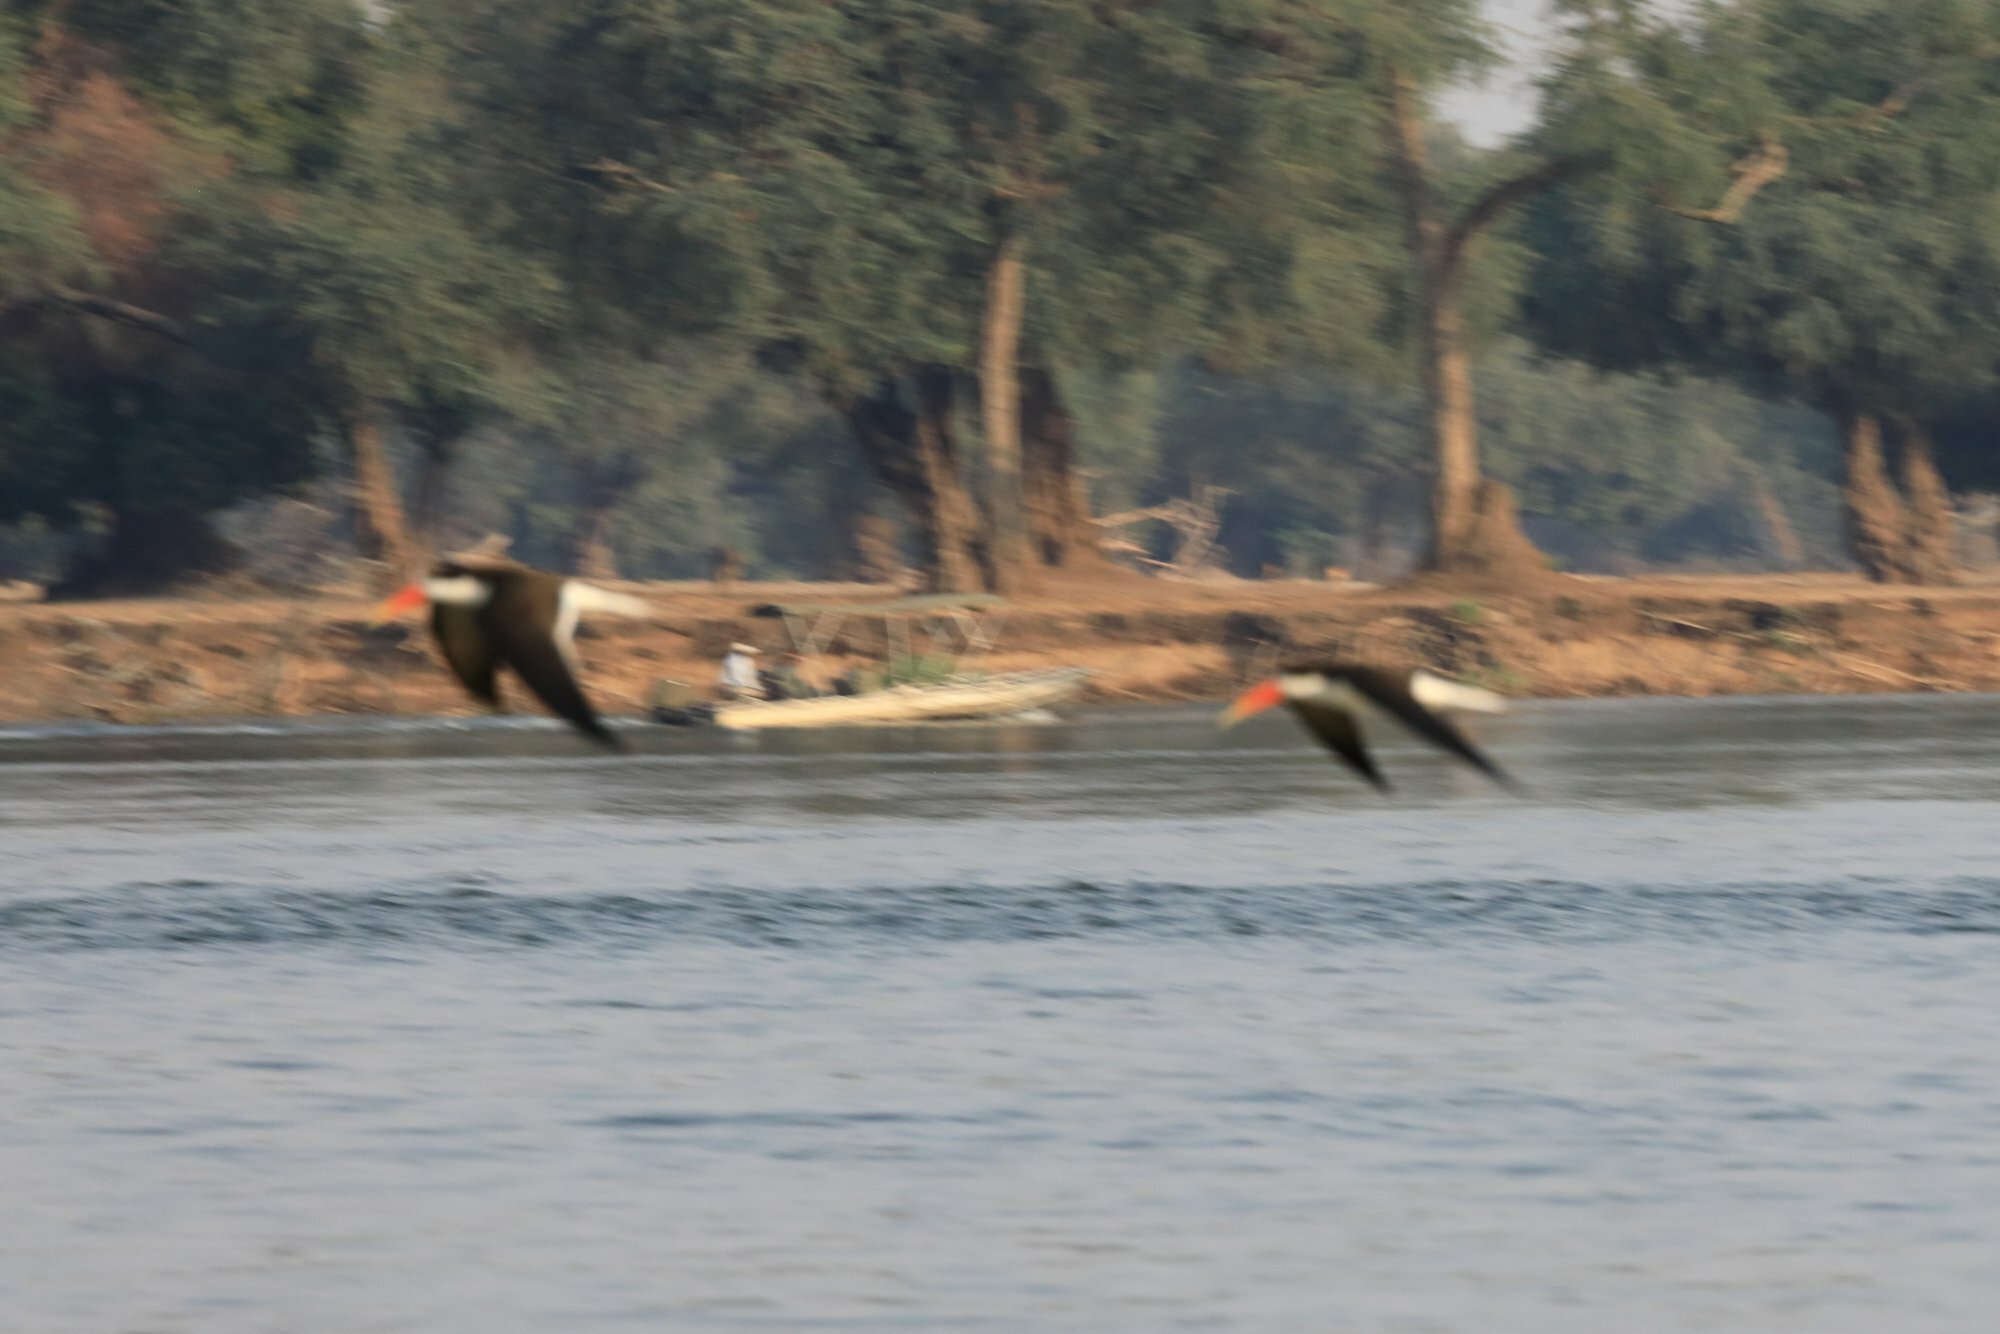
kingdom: Animalia
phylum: Chordata
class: Aves
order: Charadriiformes
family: Laridae
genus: Rynchops
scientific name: Rynchops flavirostris
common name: African skimmer
